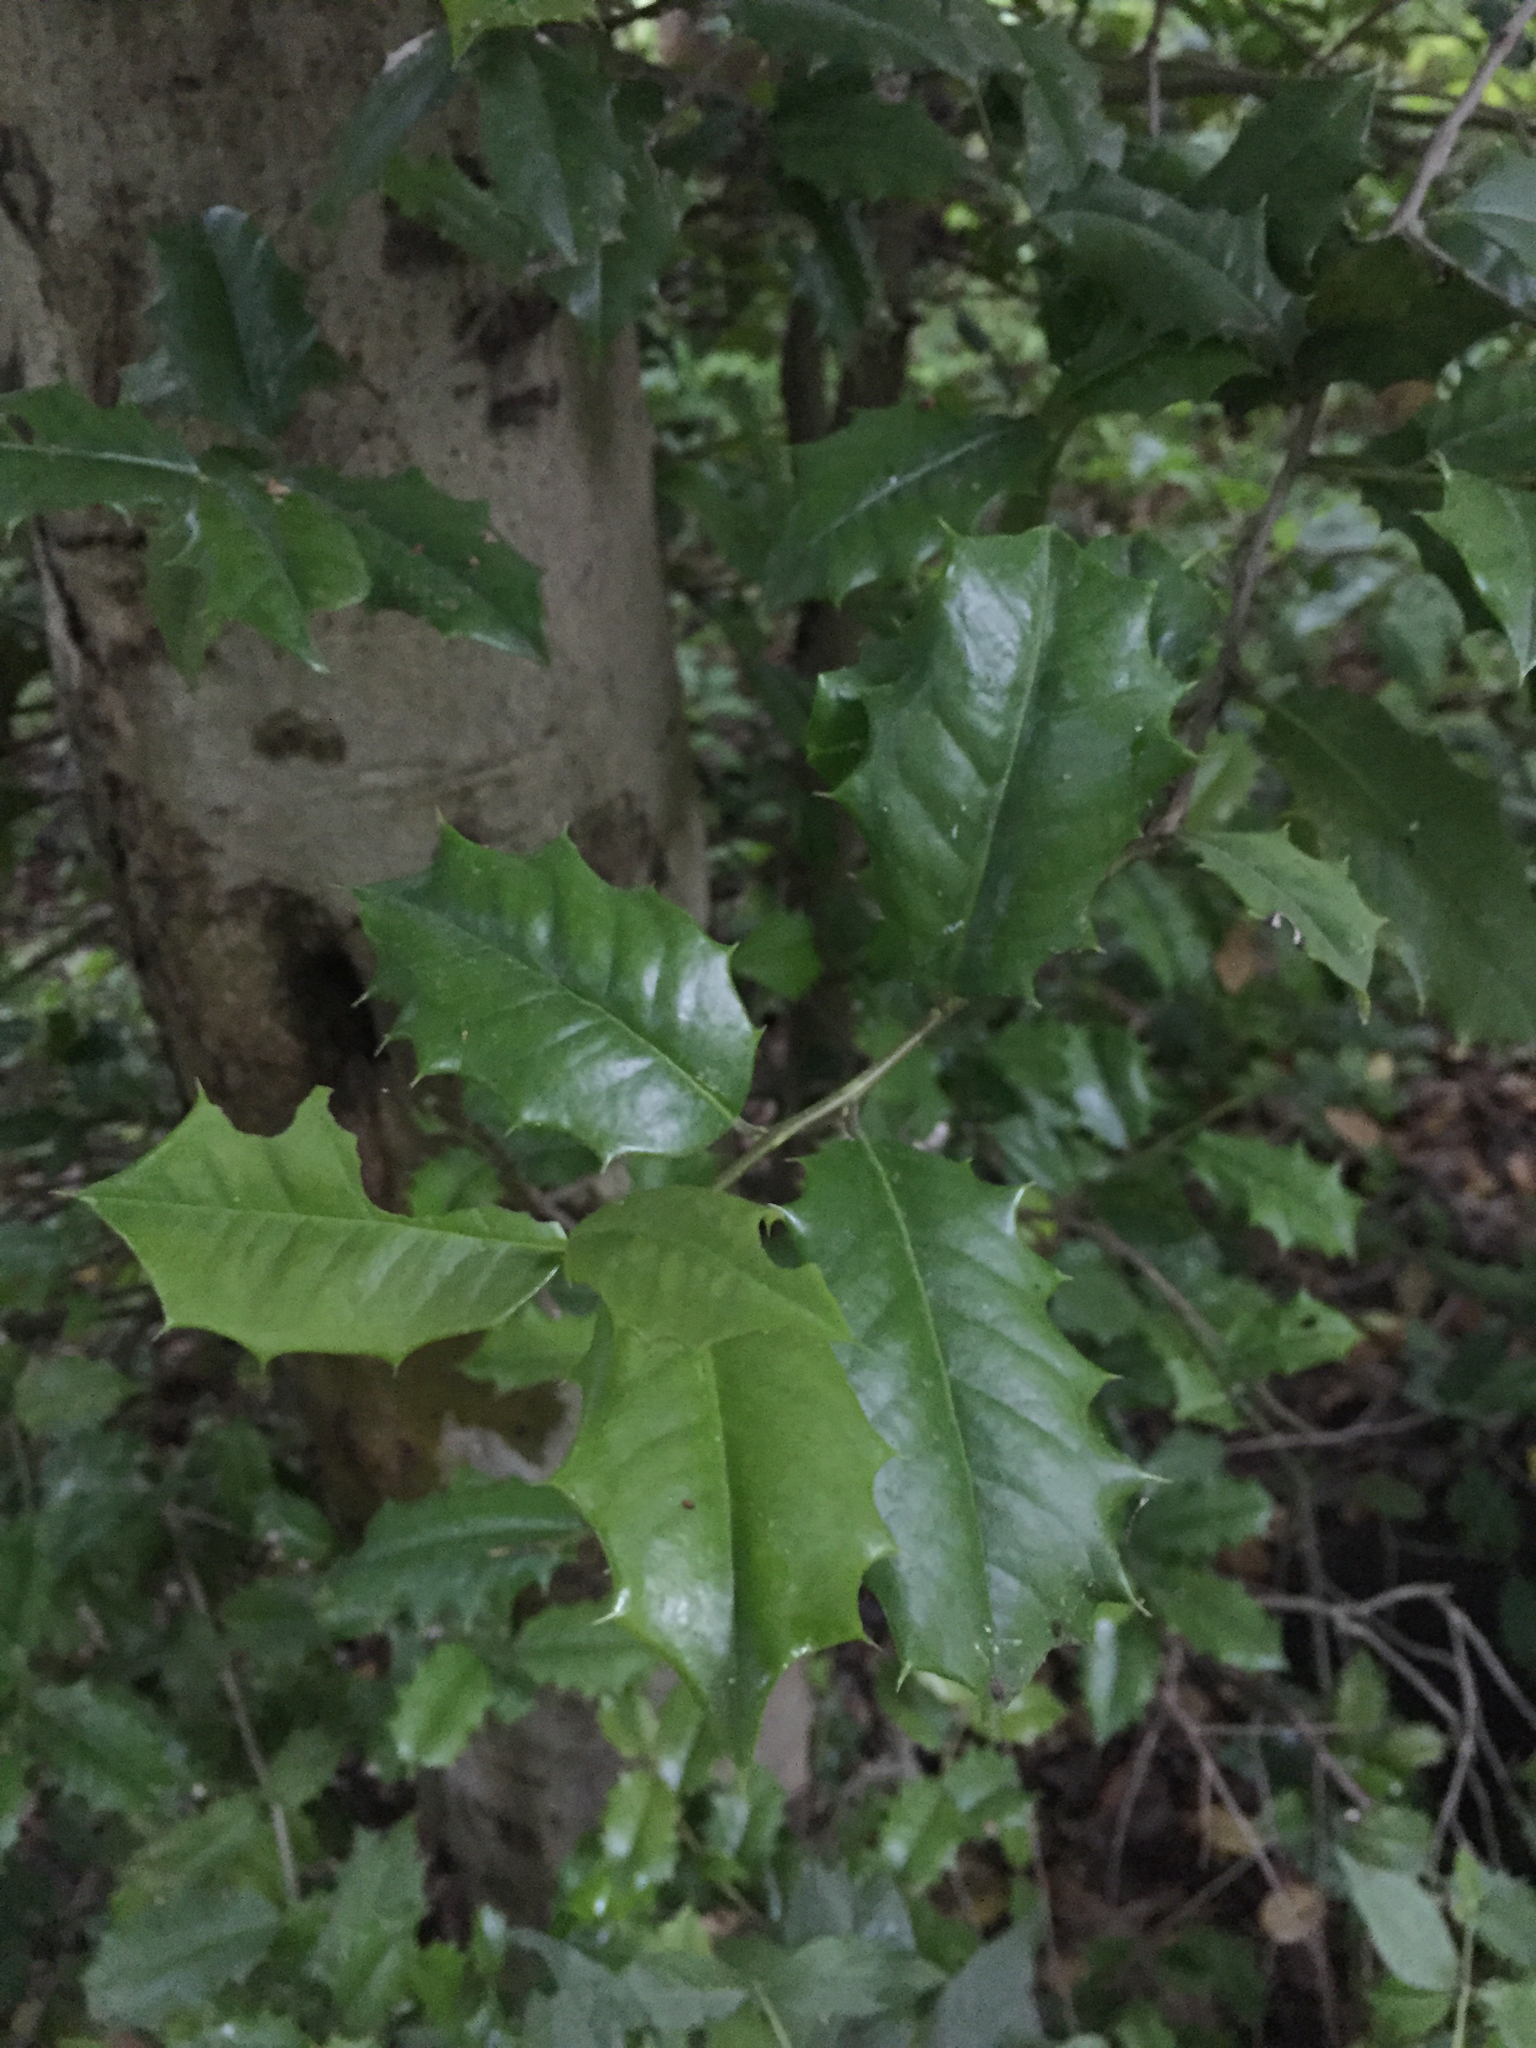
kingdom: Plantae
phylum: Tracheophyta
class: Magnoliopsida
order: Aquifoliales
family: Aquifoliaceae
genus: Ilex
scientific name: Ilex opaca
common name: American holly
